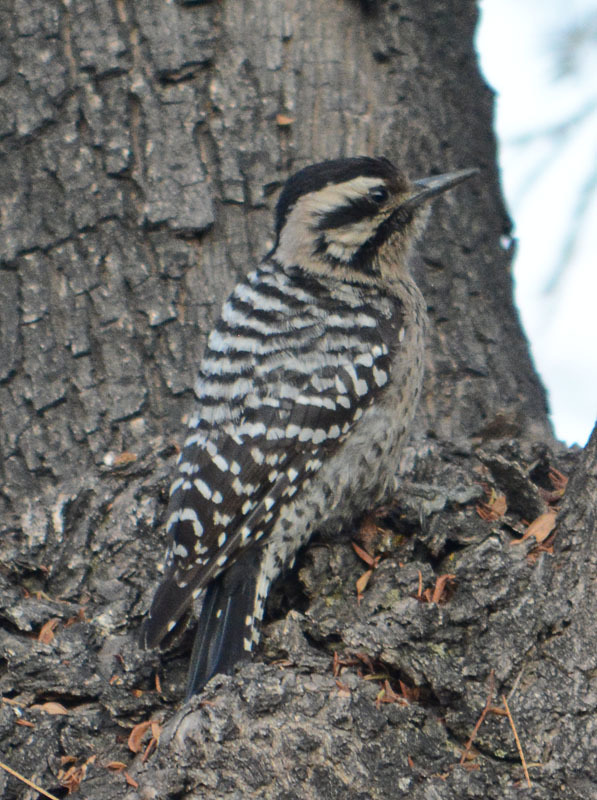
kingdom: Animalia
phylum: Chordata
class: Aves
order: Piciformes
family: Picidae
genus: Dryobates
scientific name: Dryobates scalaris
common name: Ladder-backed woodpecker
